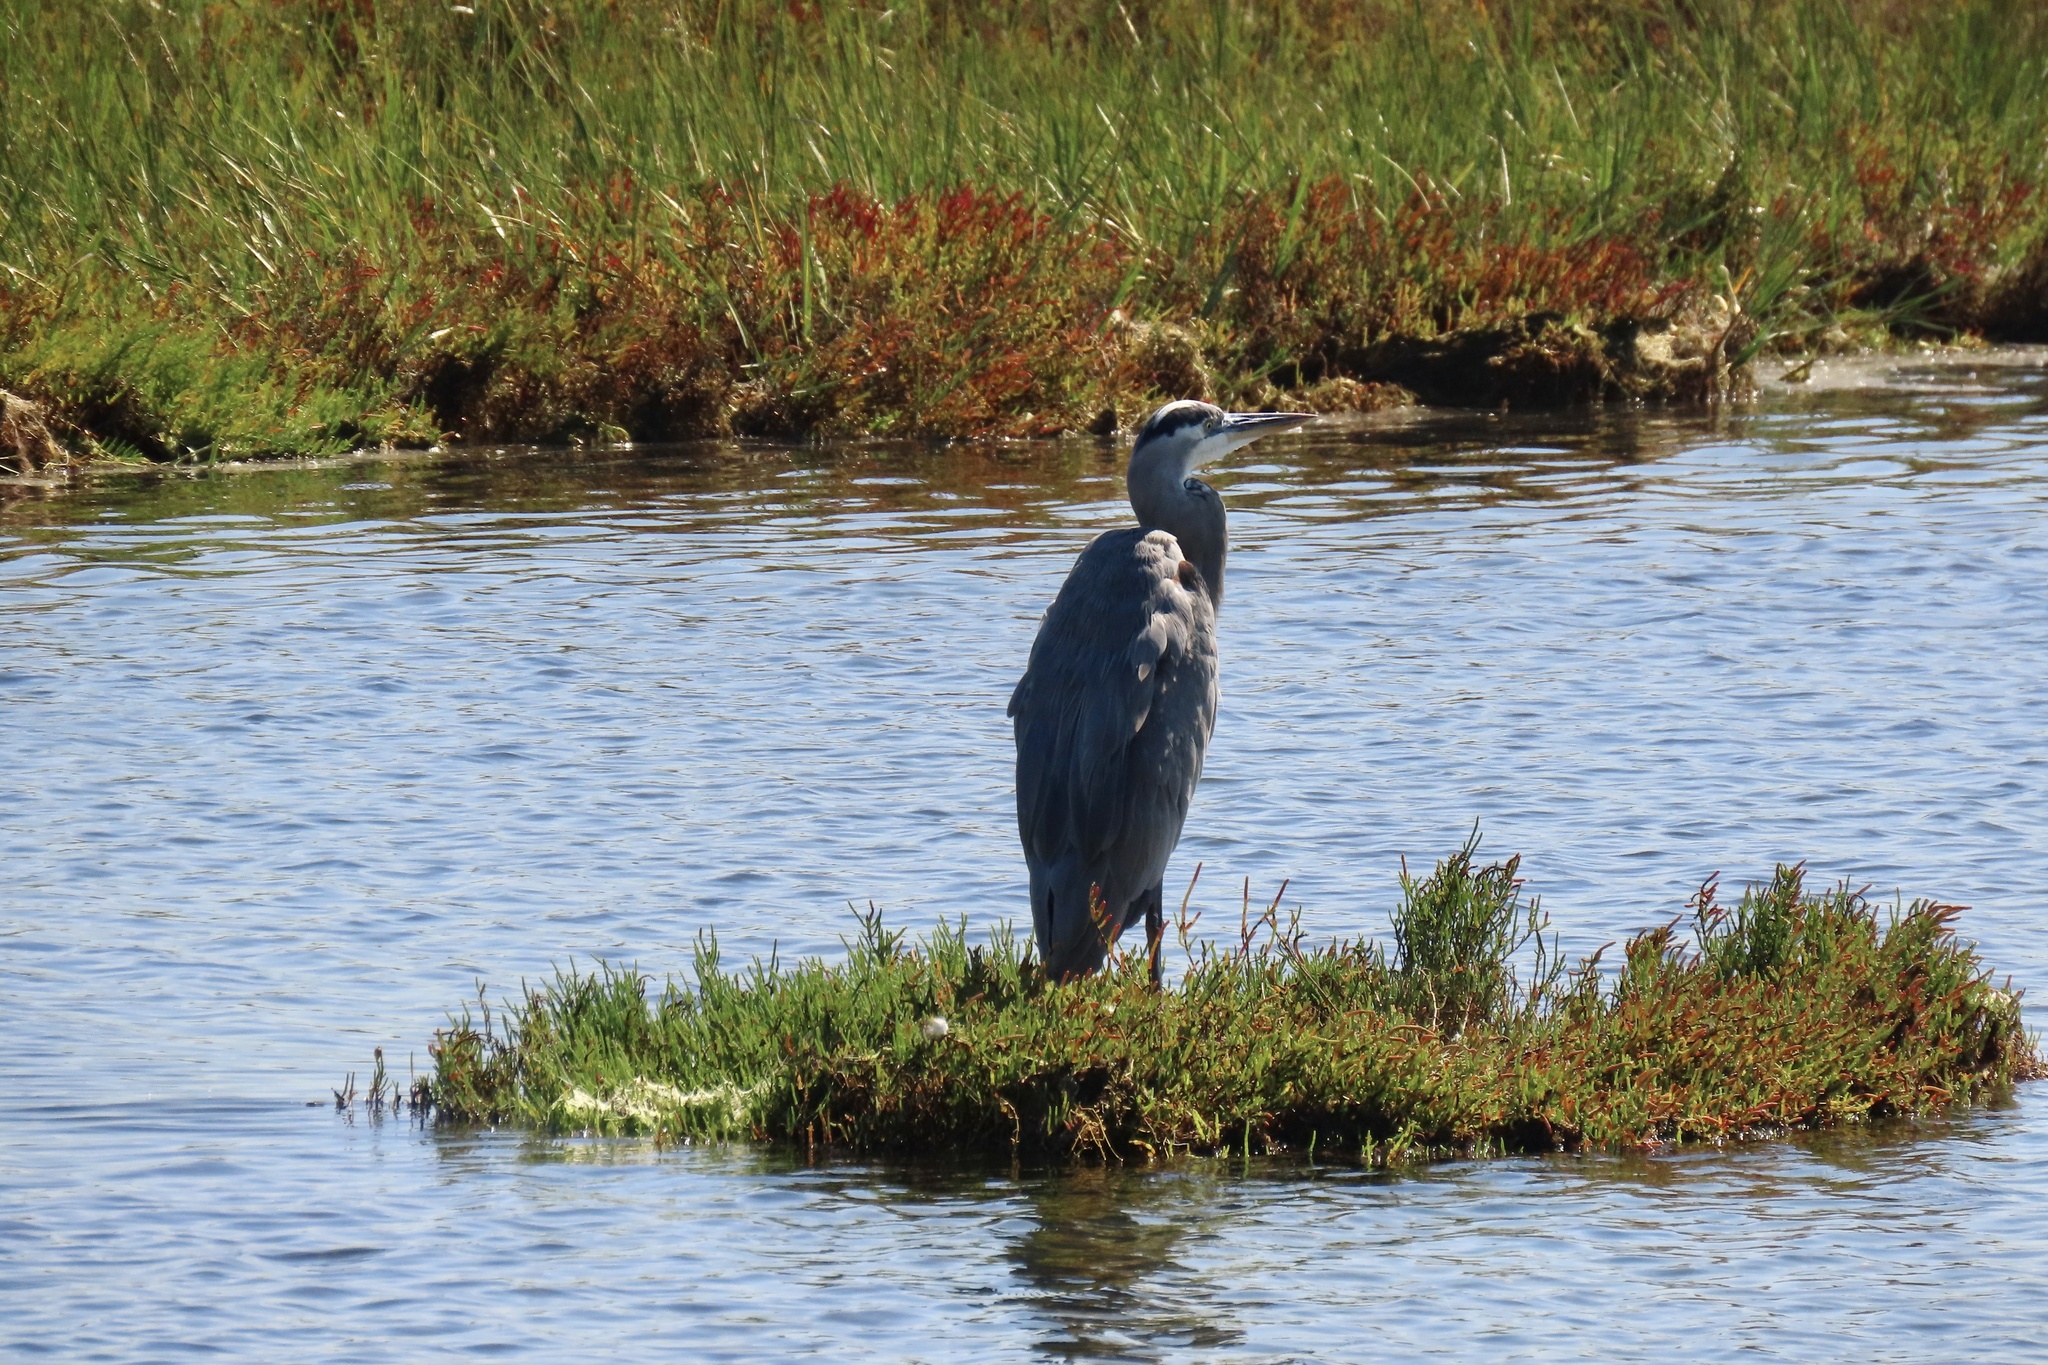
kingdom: Animalia
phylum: Chordata
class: Aves
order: Pelecaniformes
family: Ardeidae
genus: Ardea
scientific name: Ardea herodias
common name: Great blue heron
